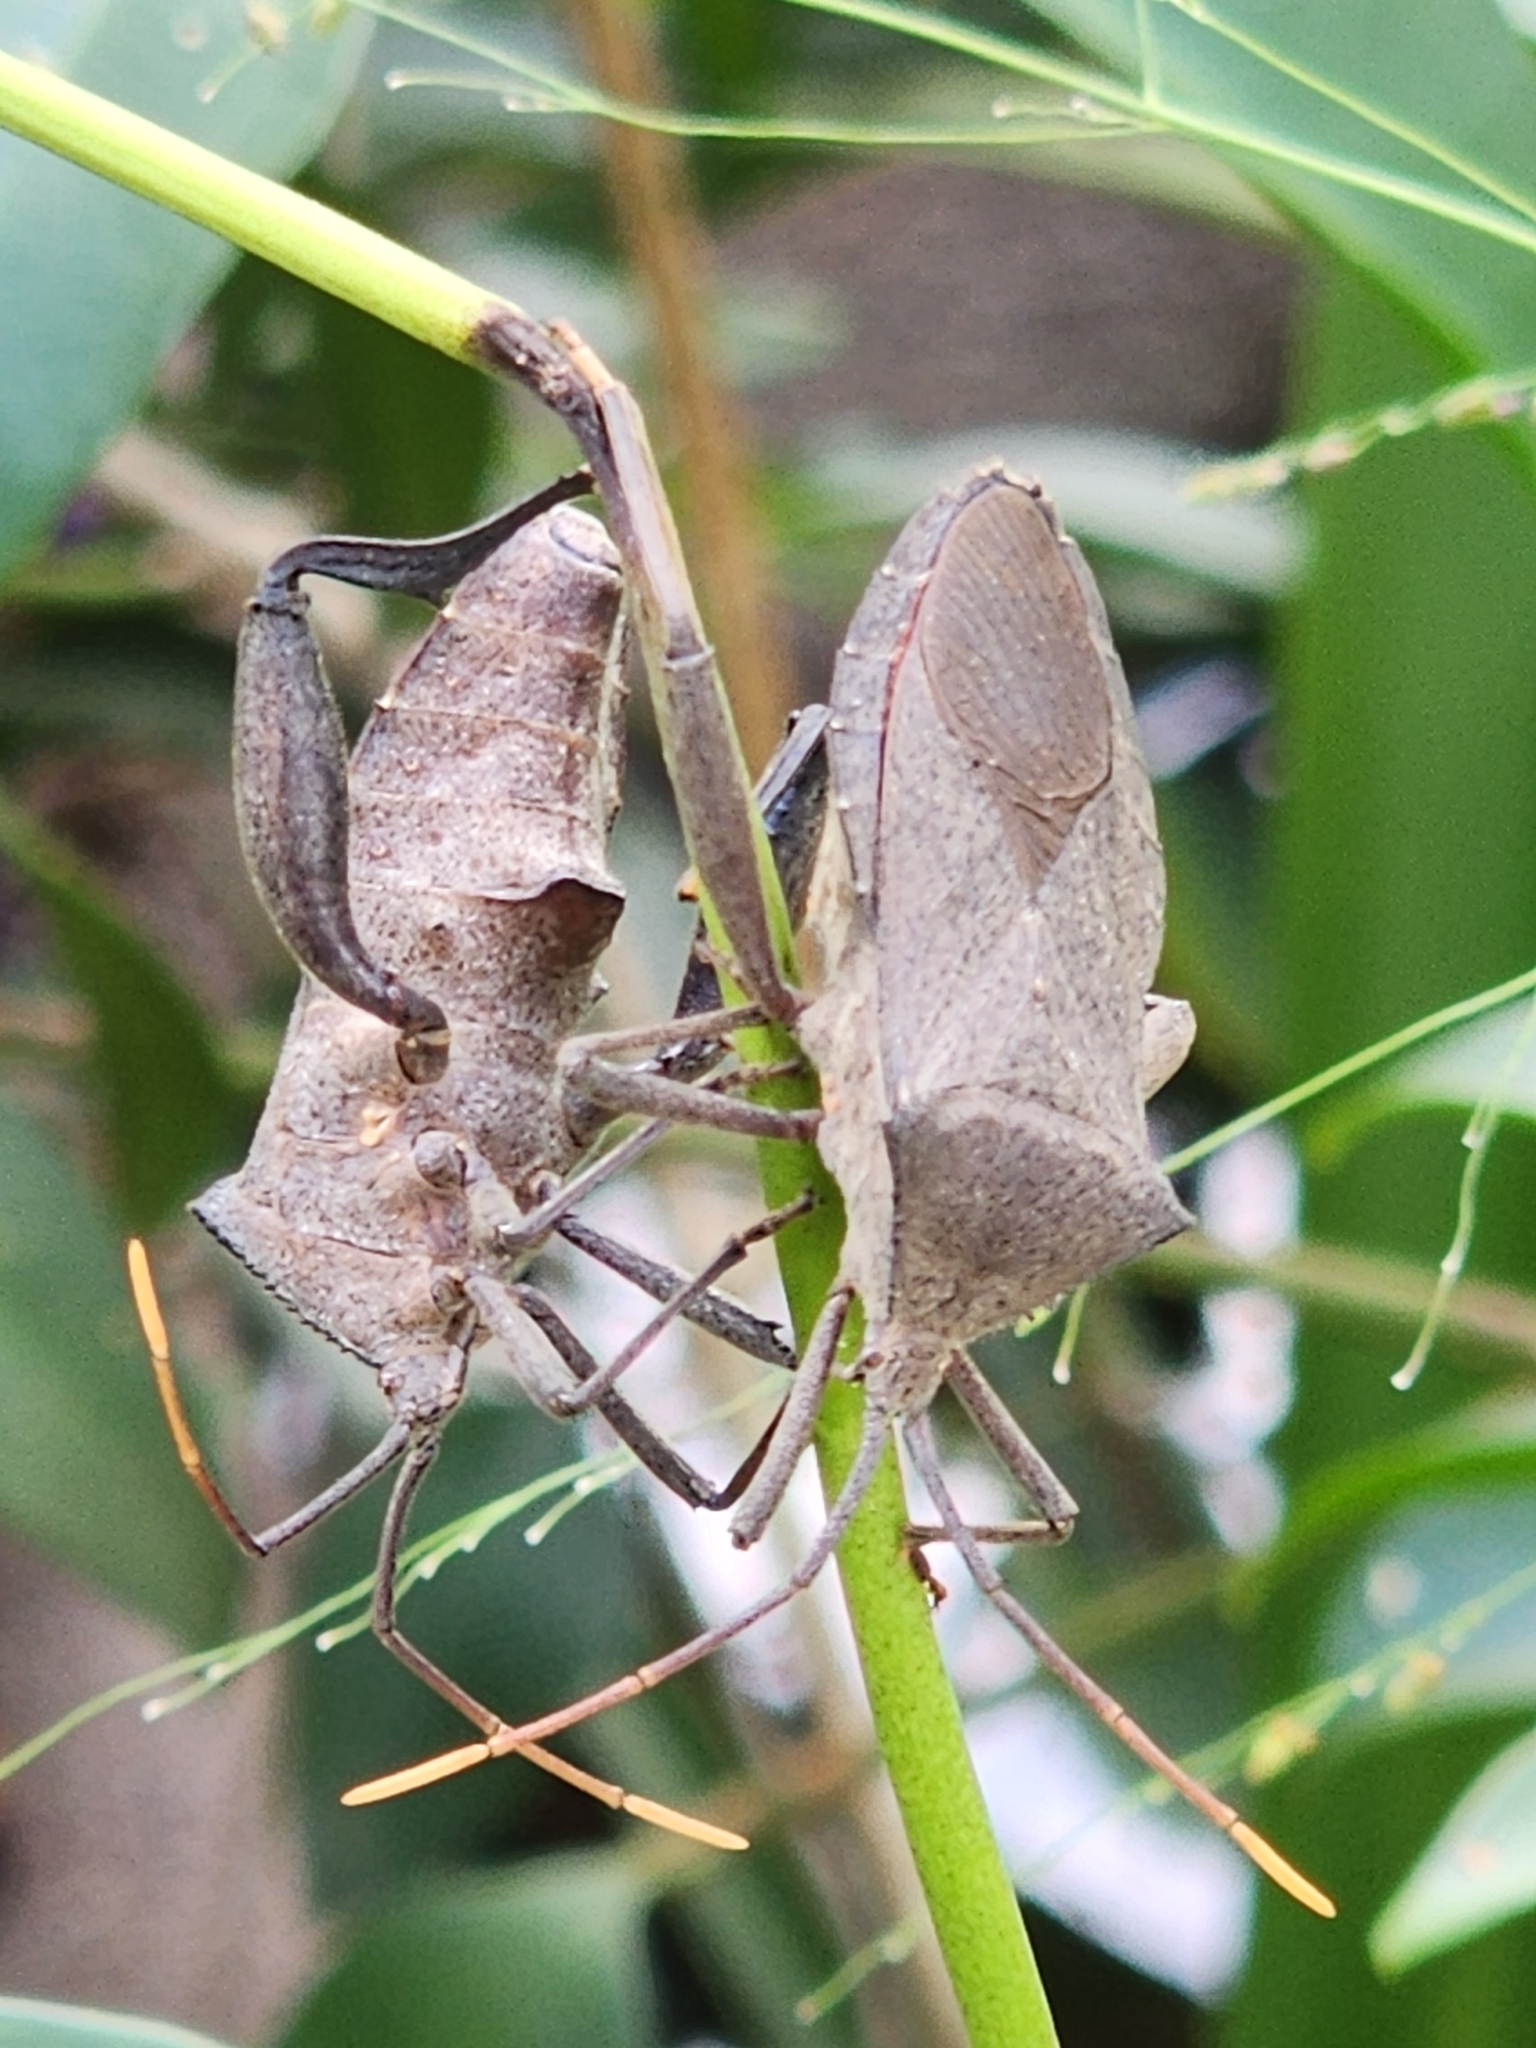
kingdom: Animalia
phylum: Arthropoda
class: Insecta
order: Hemiptera
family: Coreidae
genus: Mictis
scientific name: Mictis difficilis
